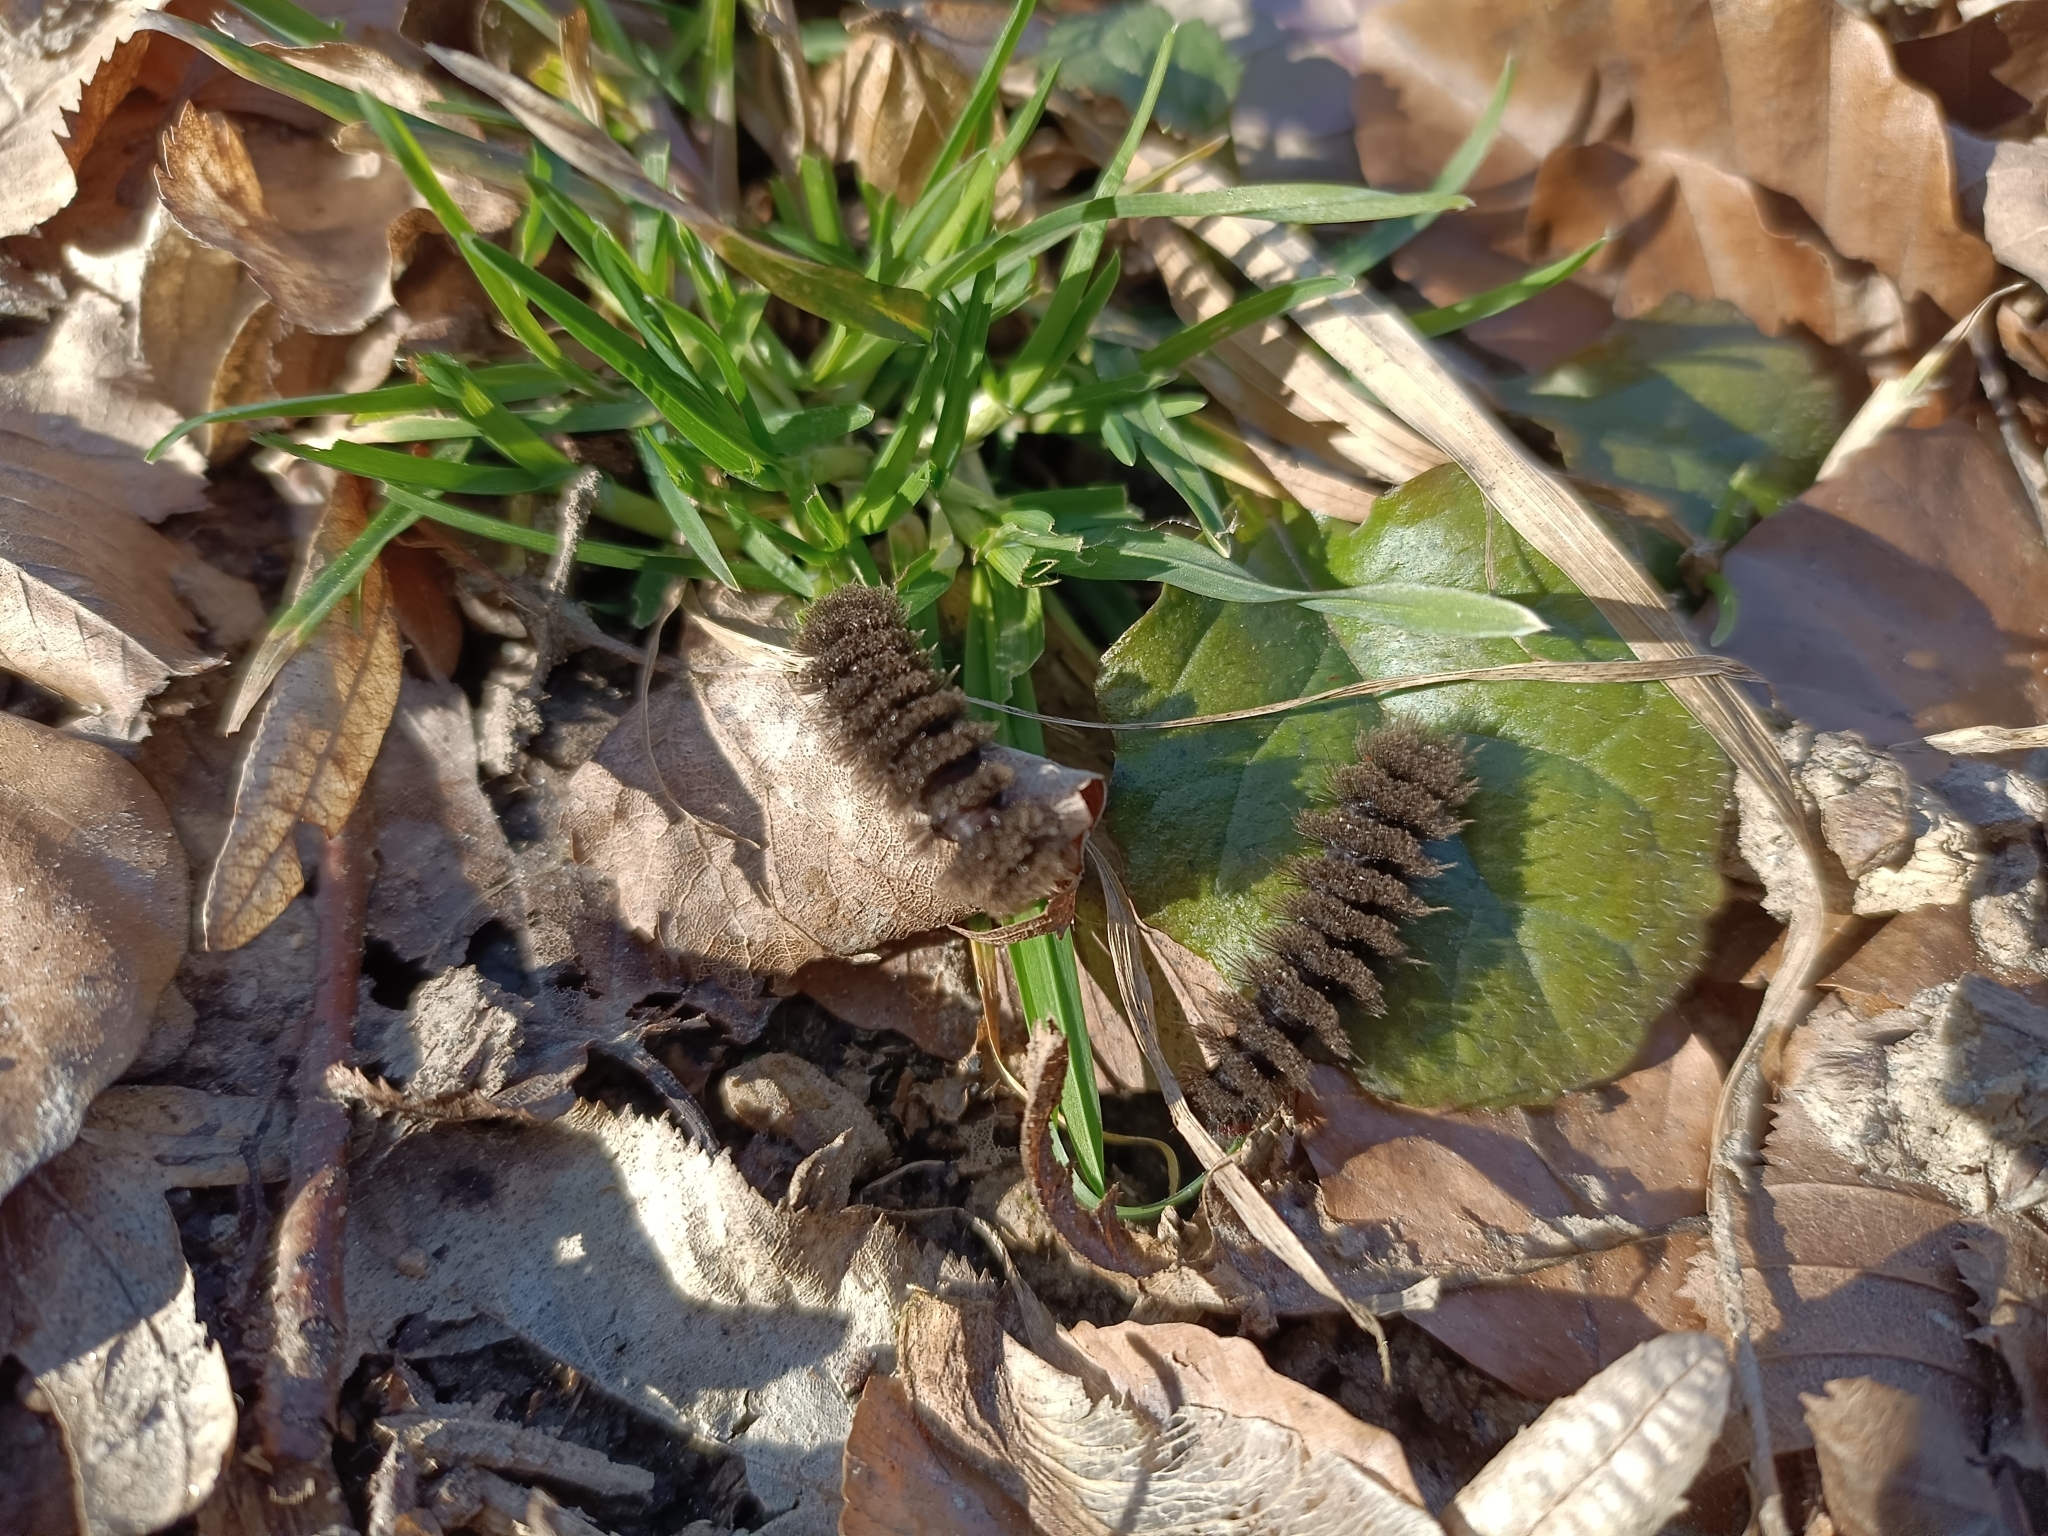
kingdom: Animalia
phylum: Arthropoda
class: Insecta
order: Lepidoptera
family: Erebidae
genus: Amata
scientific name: Amata phegea
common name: Nine-spotted
